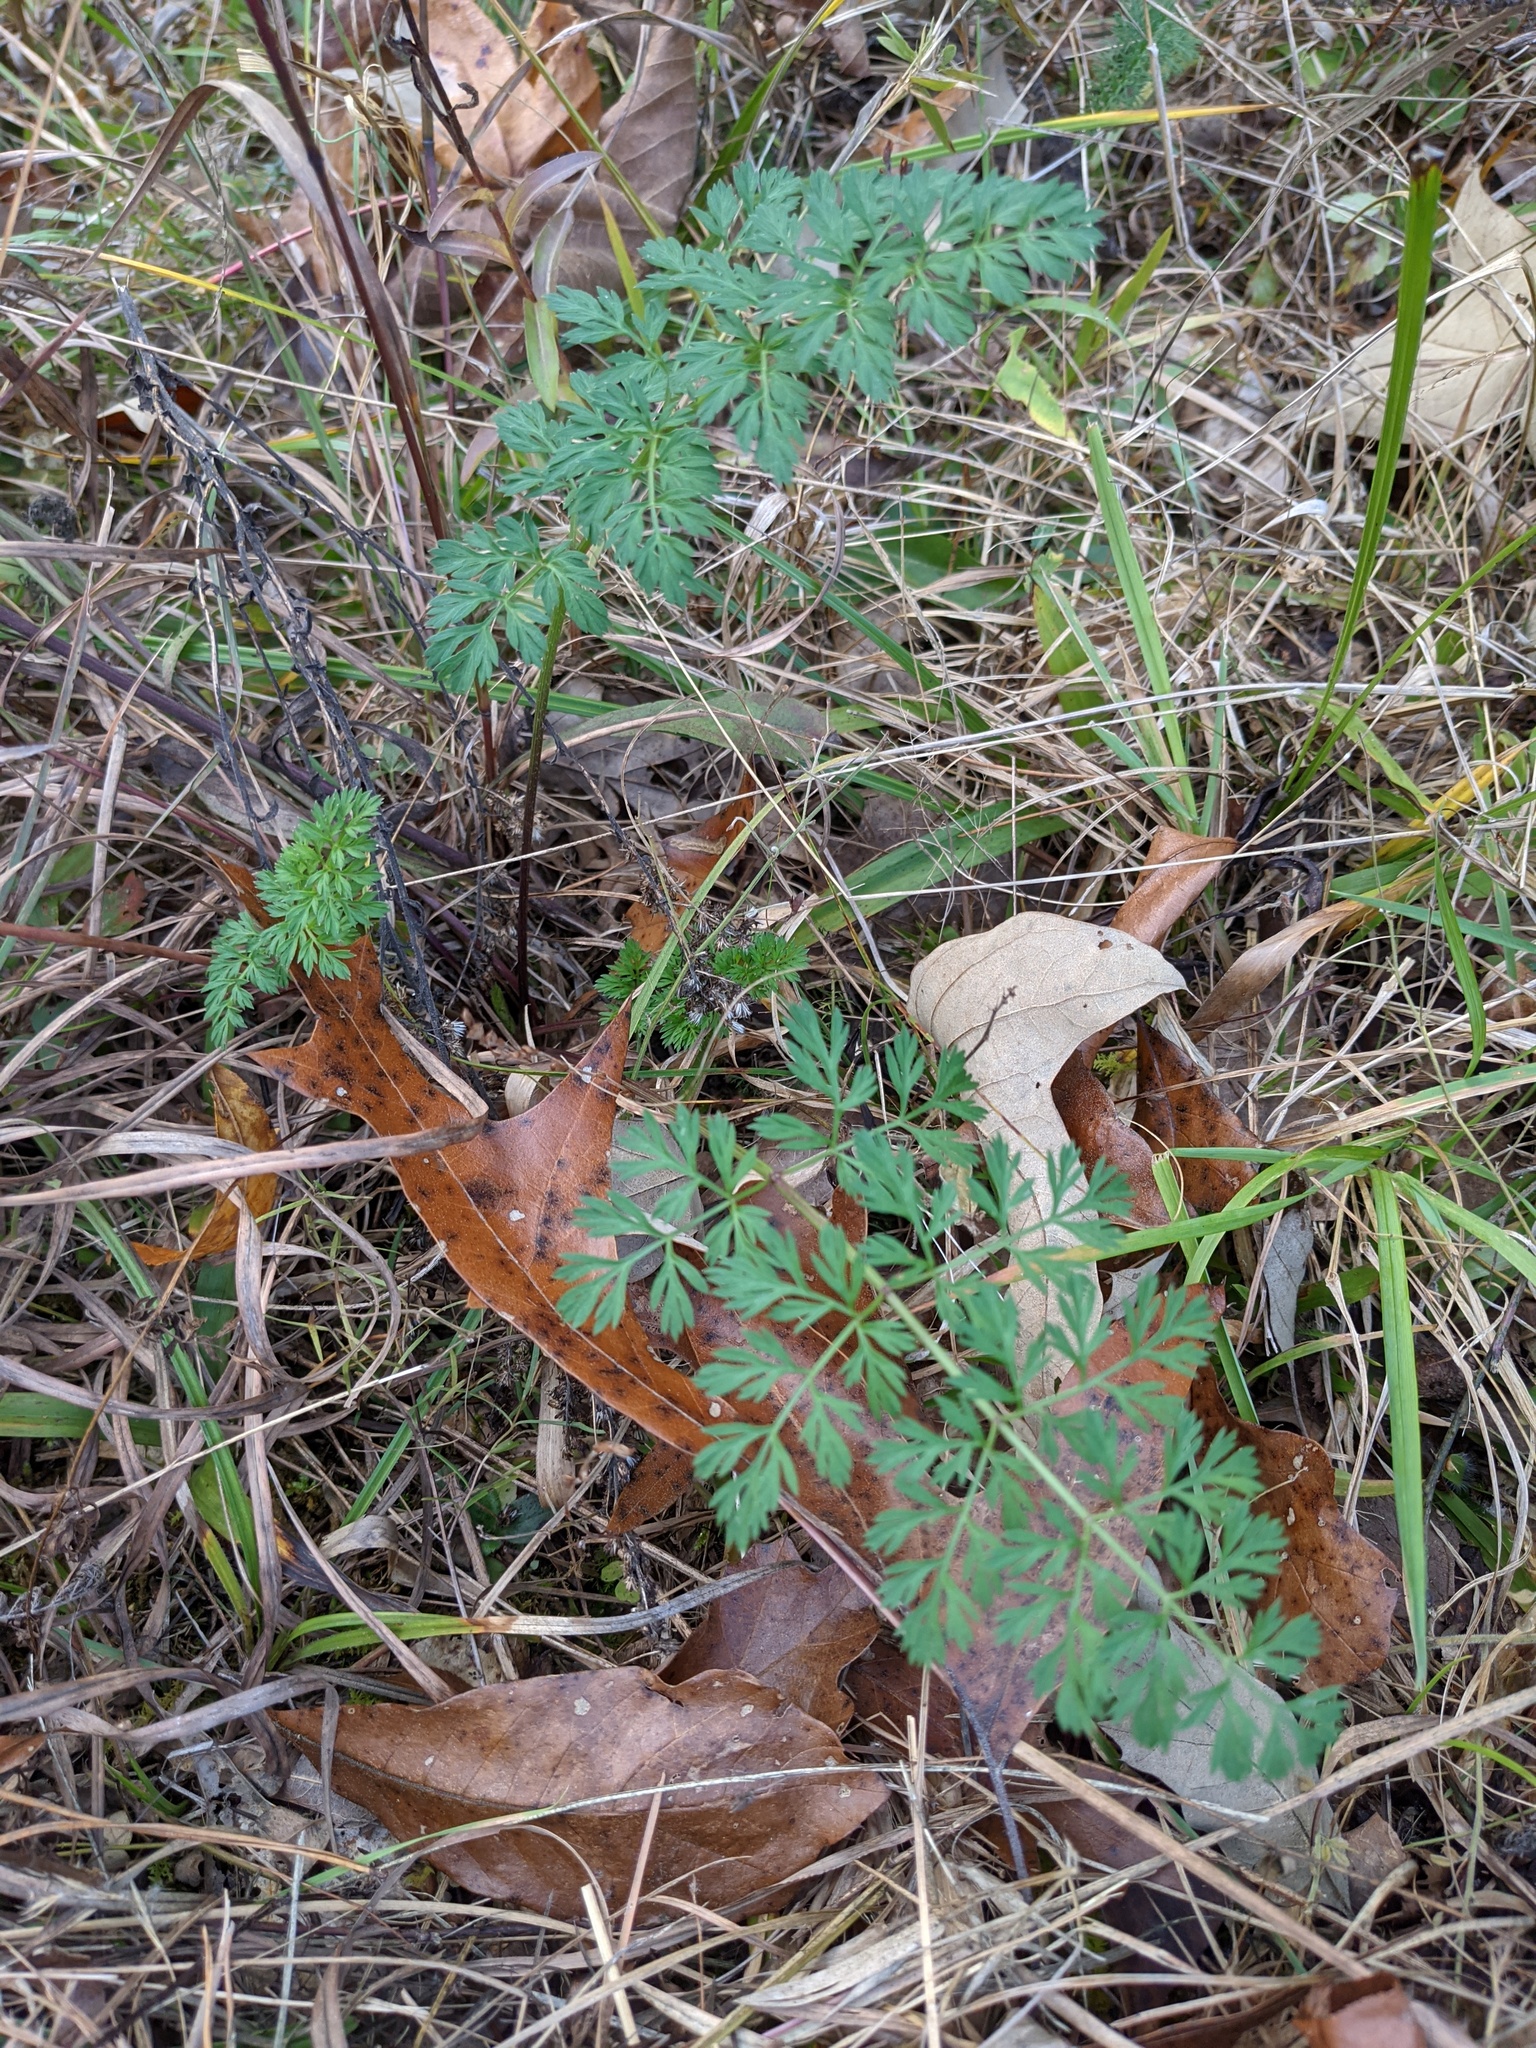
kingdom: Plantae
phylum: Tracheophyta
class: Magnoliopsida
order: Apiales
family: Apiaceae
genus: Daucus
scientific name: Daucus carota
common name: Wild carrot
